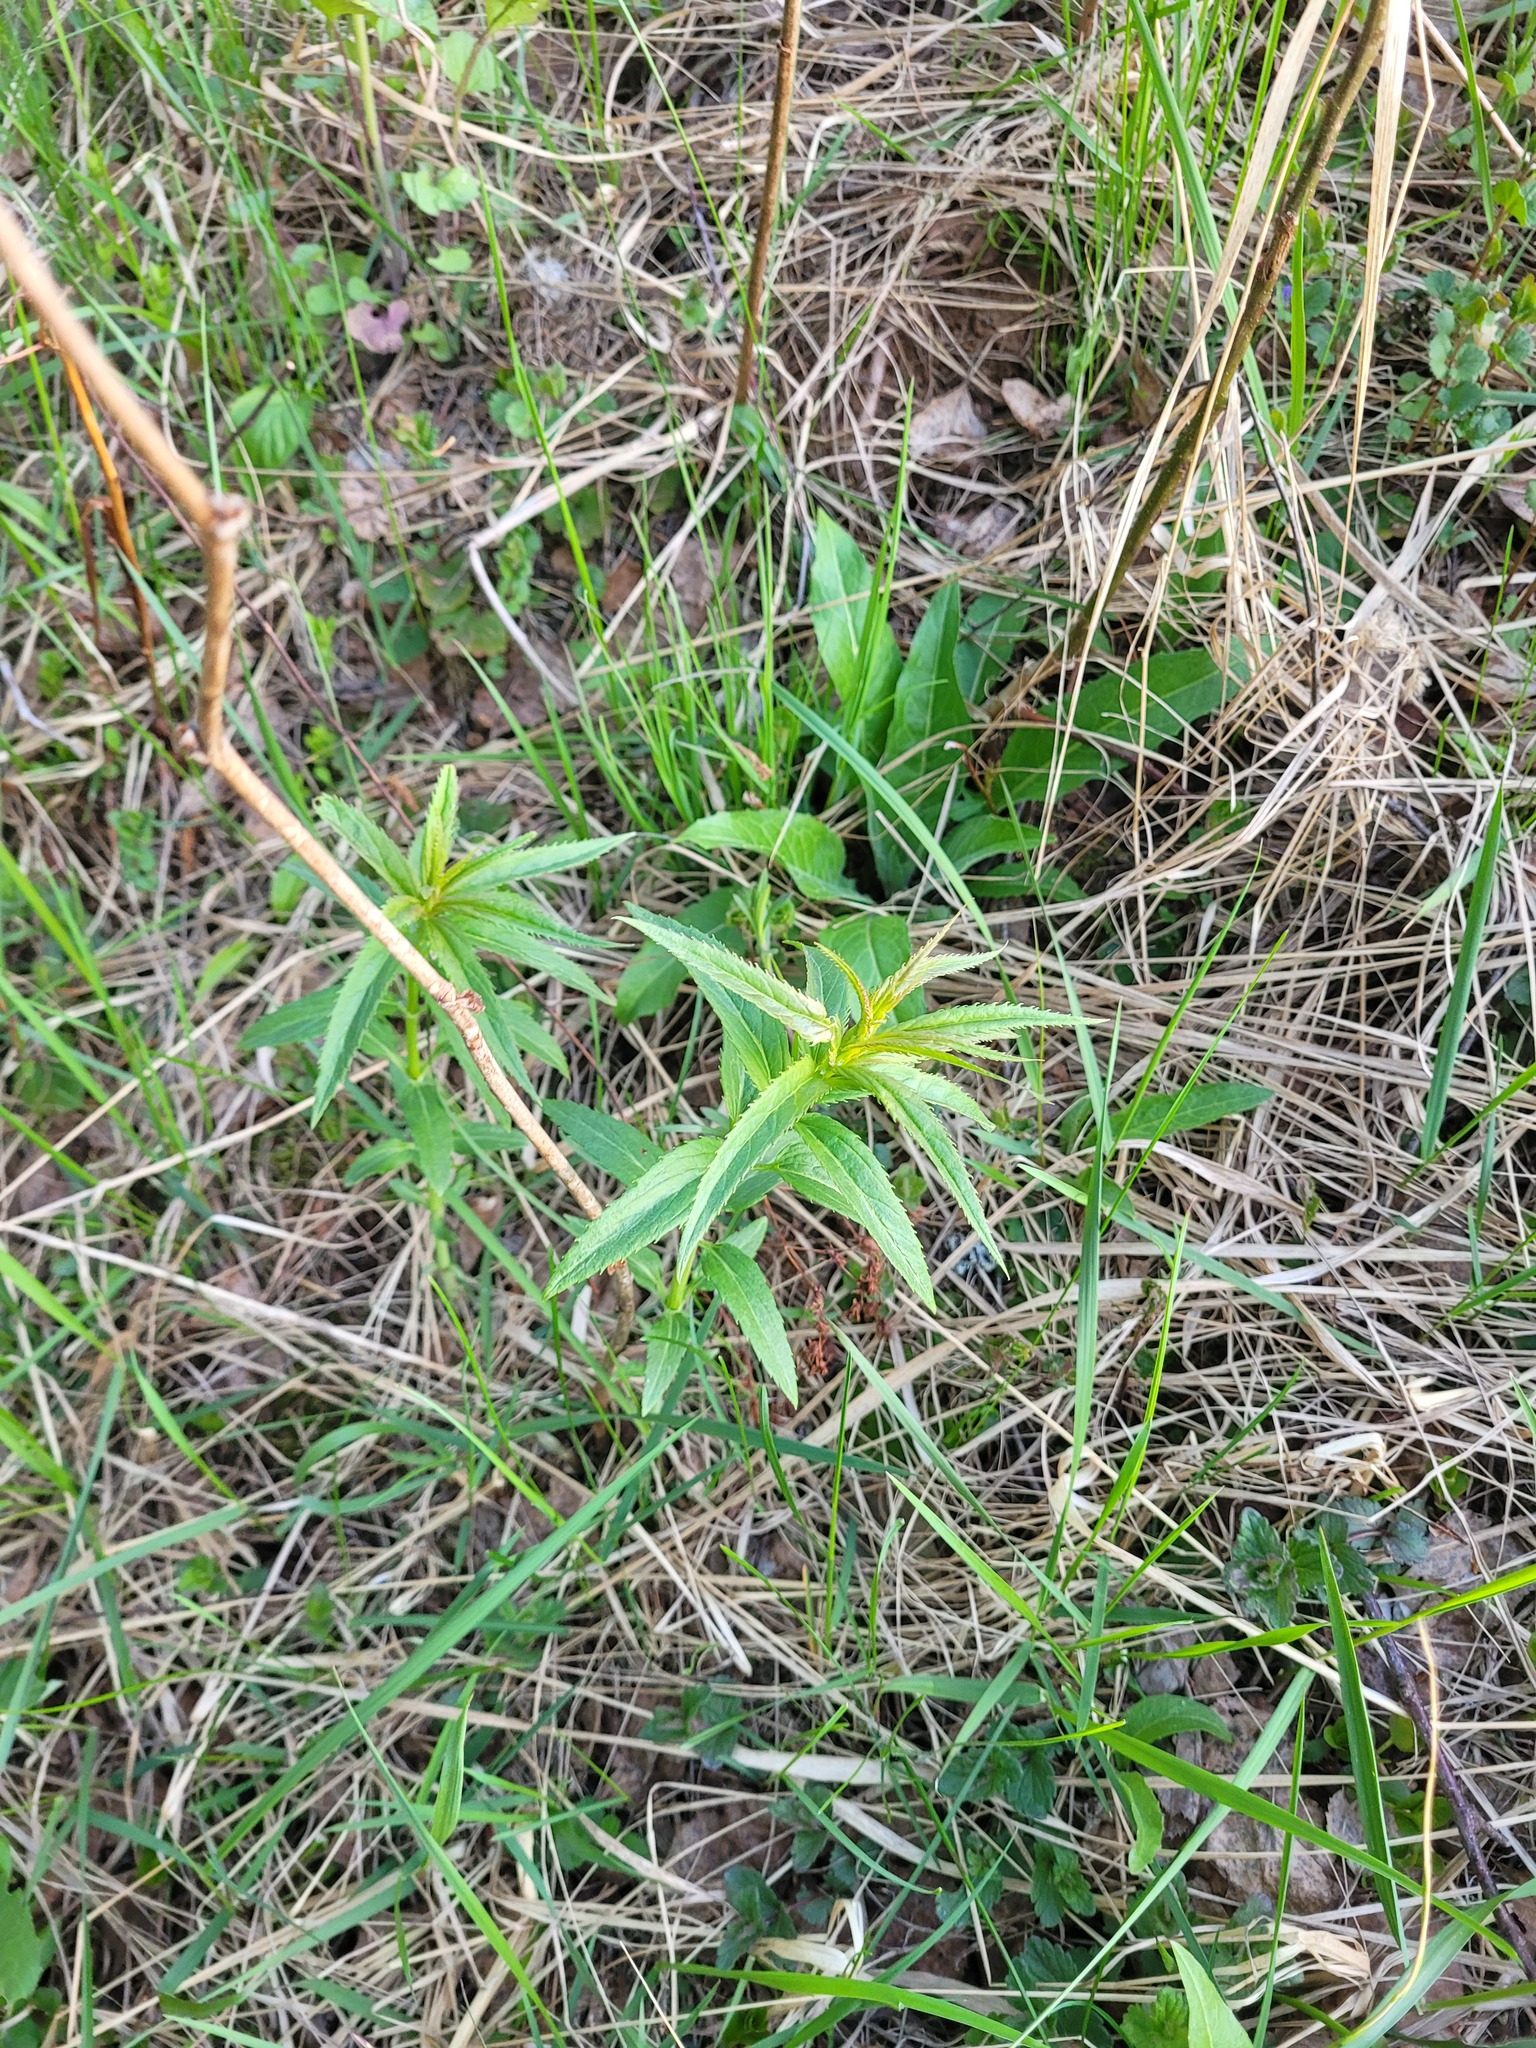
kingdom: Plantae
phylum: Tracheophyta
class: Magnoliopsida
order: Lamiales
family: Plantaginaceae
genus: Veronica
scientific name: Veronica longifolia
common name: Garden speedwell
